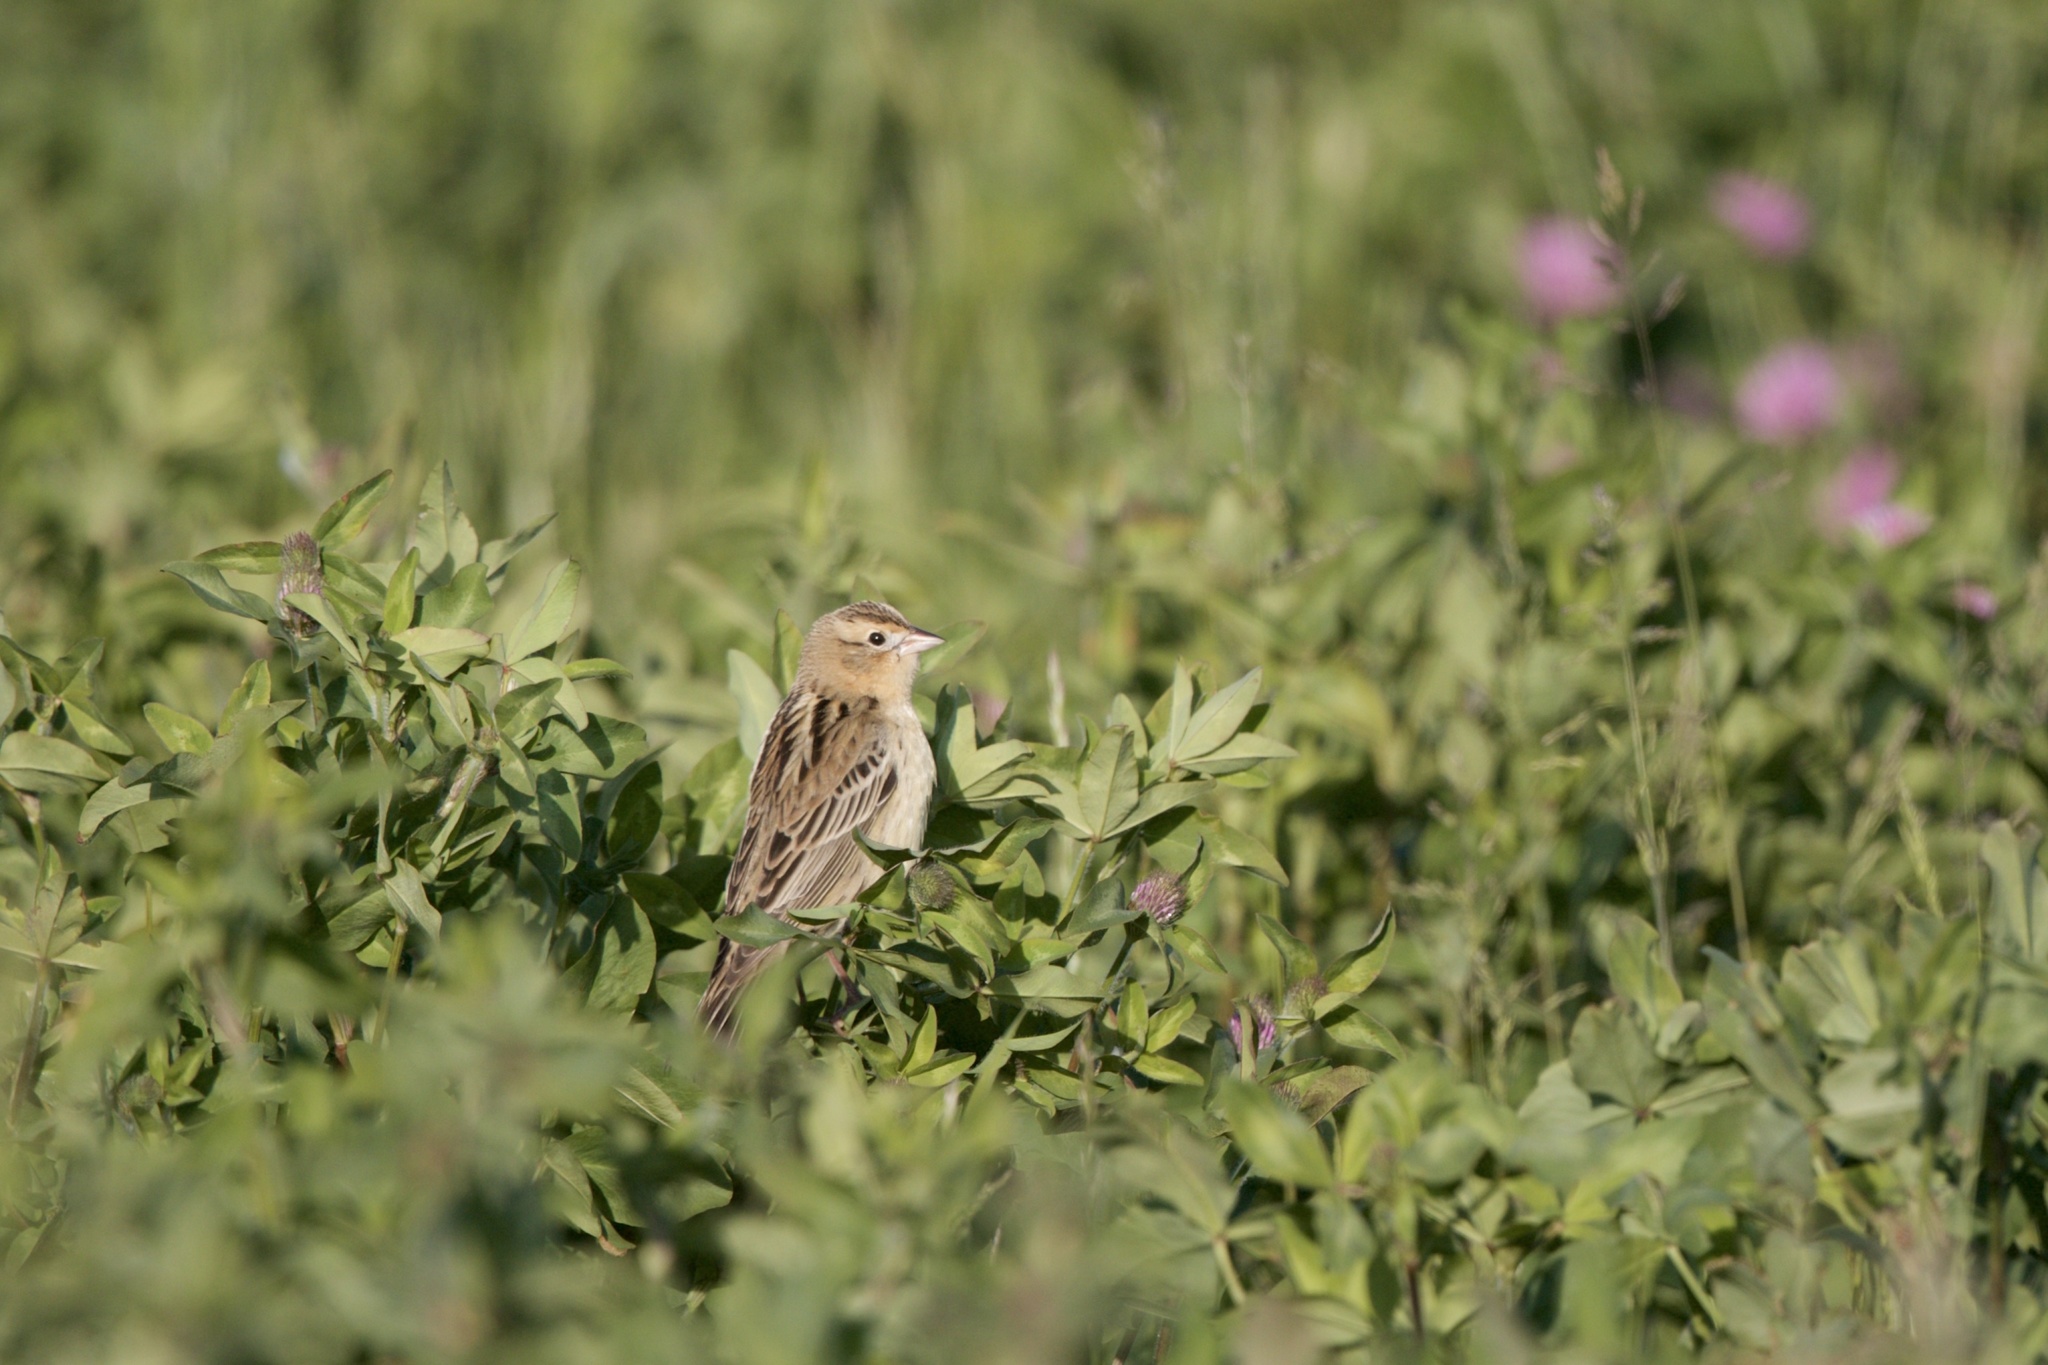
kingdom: Animalia
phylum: Chordata
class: Aves
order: Passeriformes
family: Icteridae
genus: Dolichonyx
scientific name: Dolichonyx oryzivorus
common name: Bobolink
